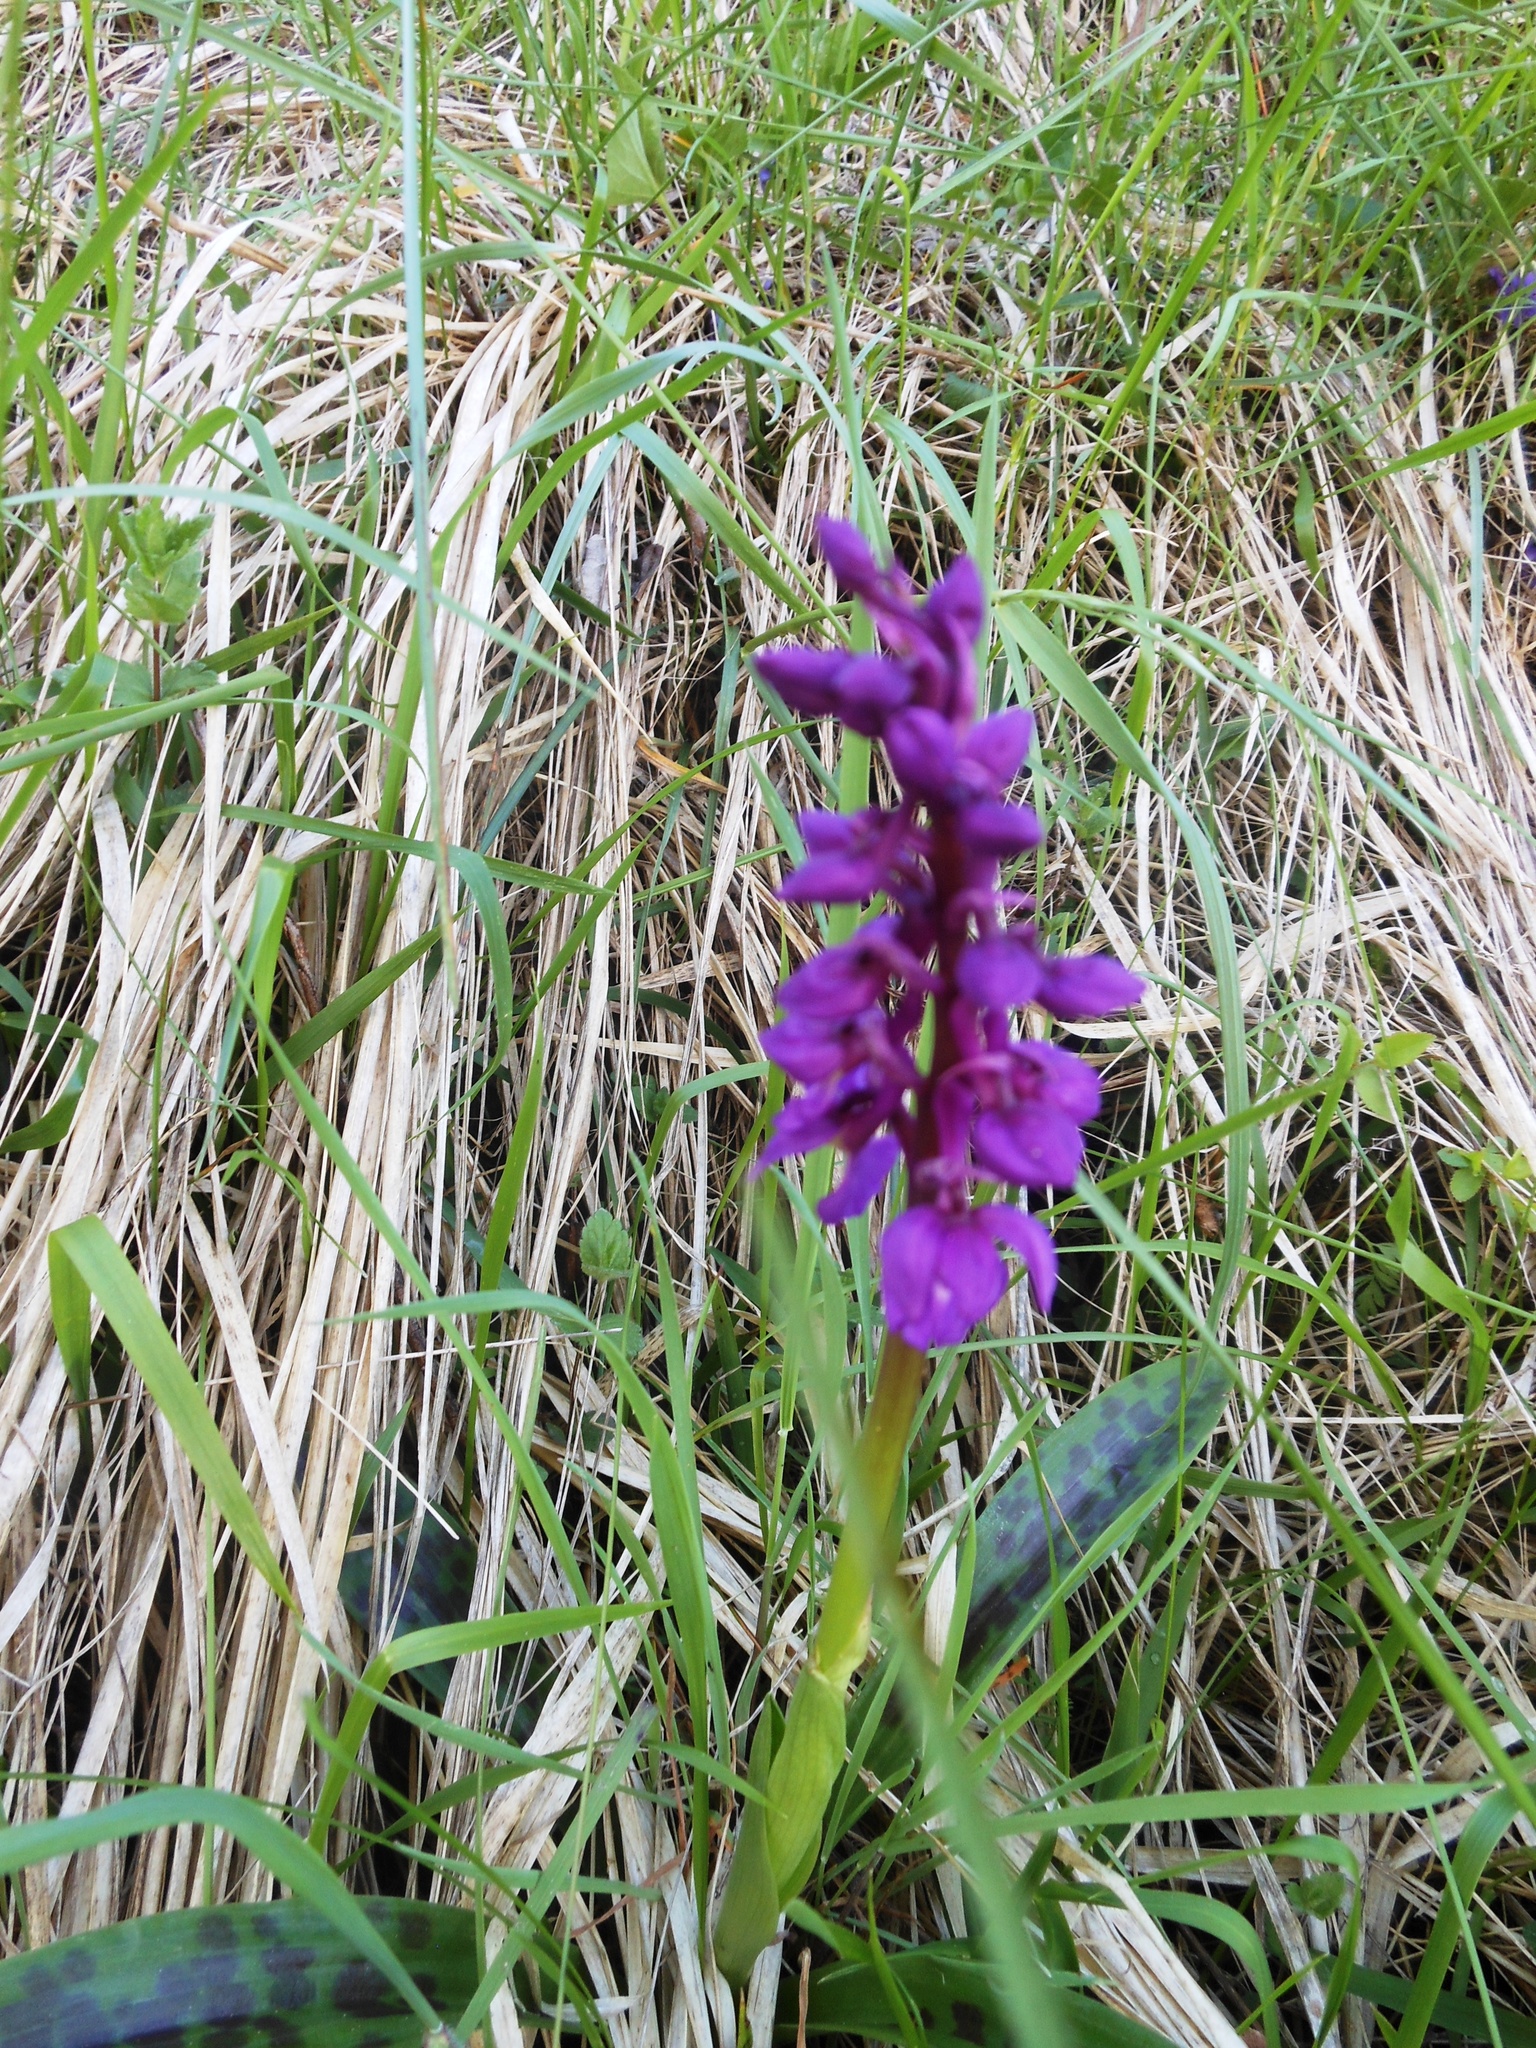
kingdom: Plantae
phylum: Tracheophyta
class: Liliopsida
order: Asparagales
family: Orchidaceae
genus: Orchis
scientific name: Orchis mascula
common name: Early-purple orchid
